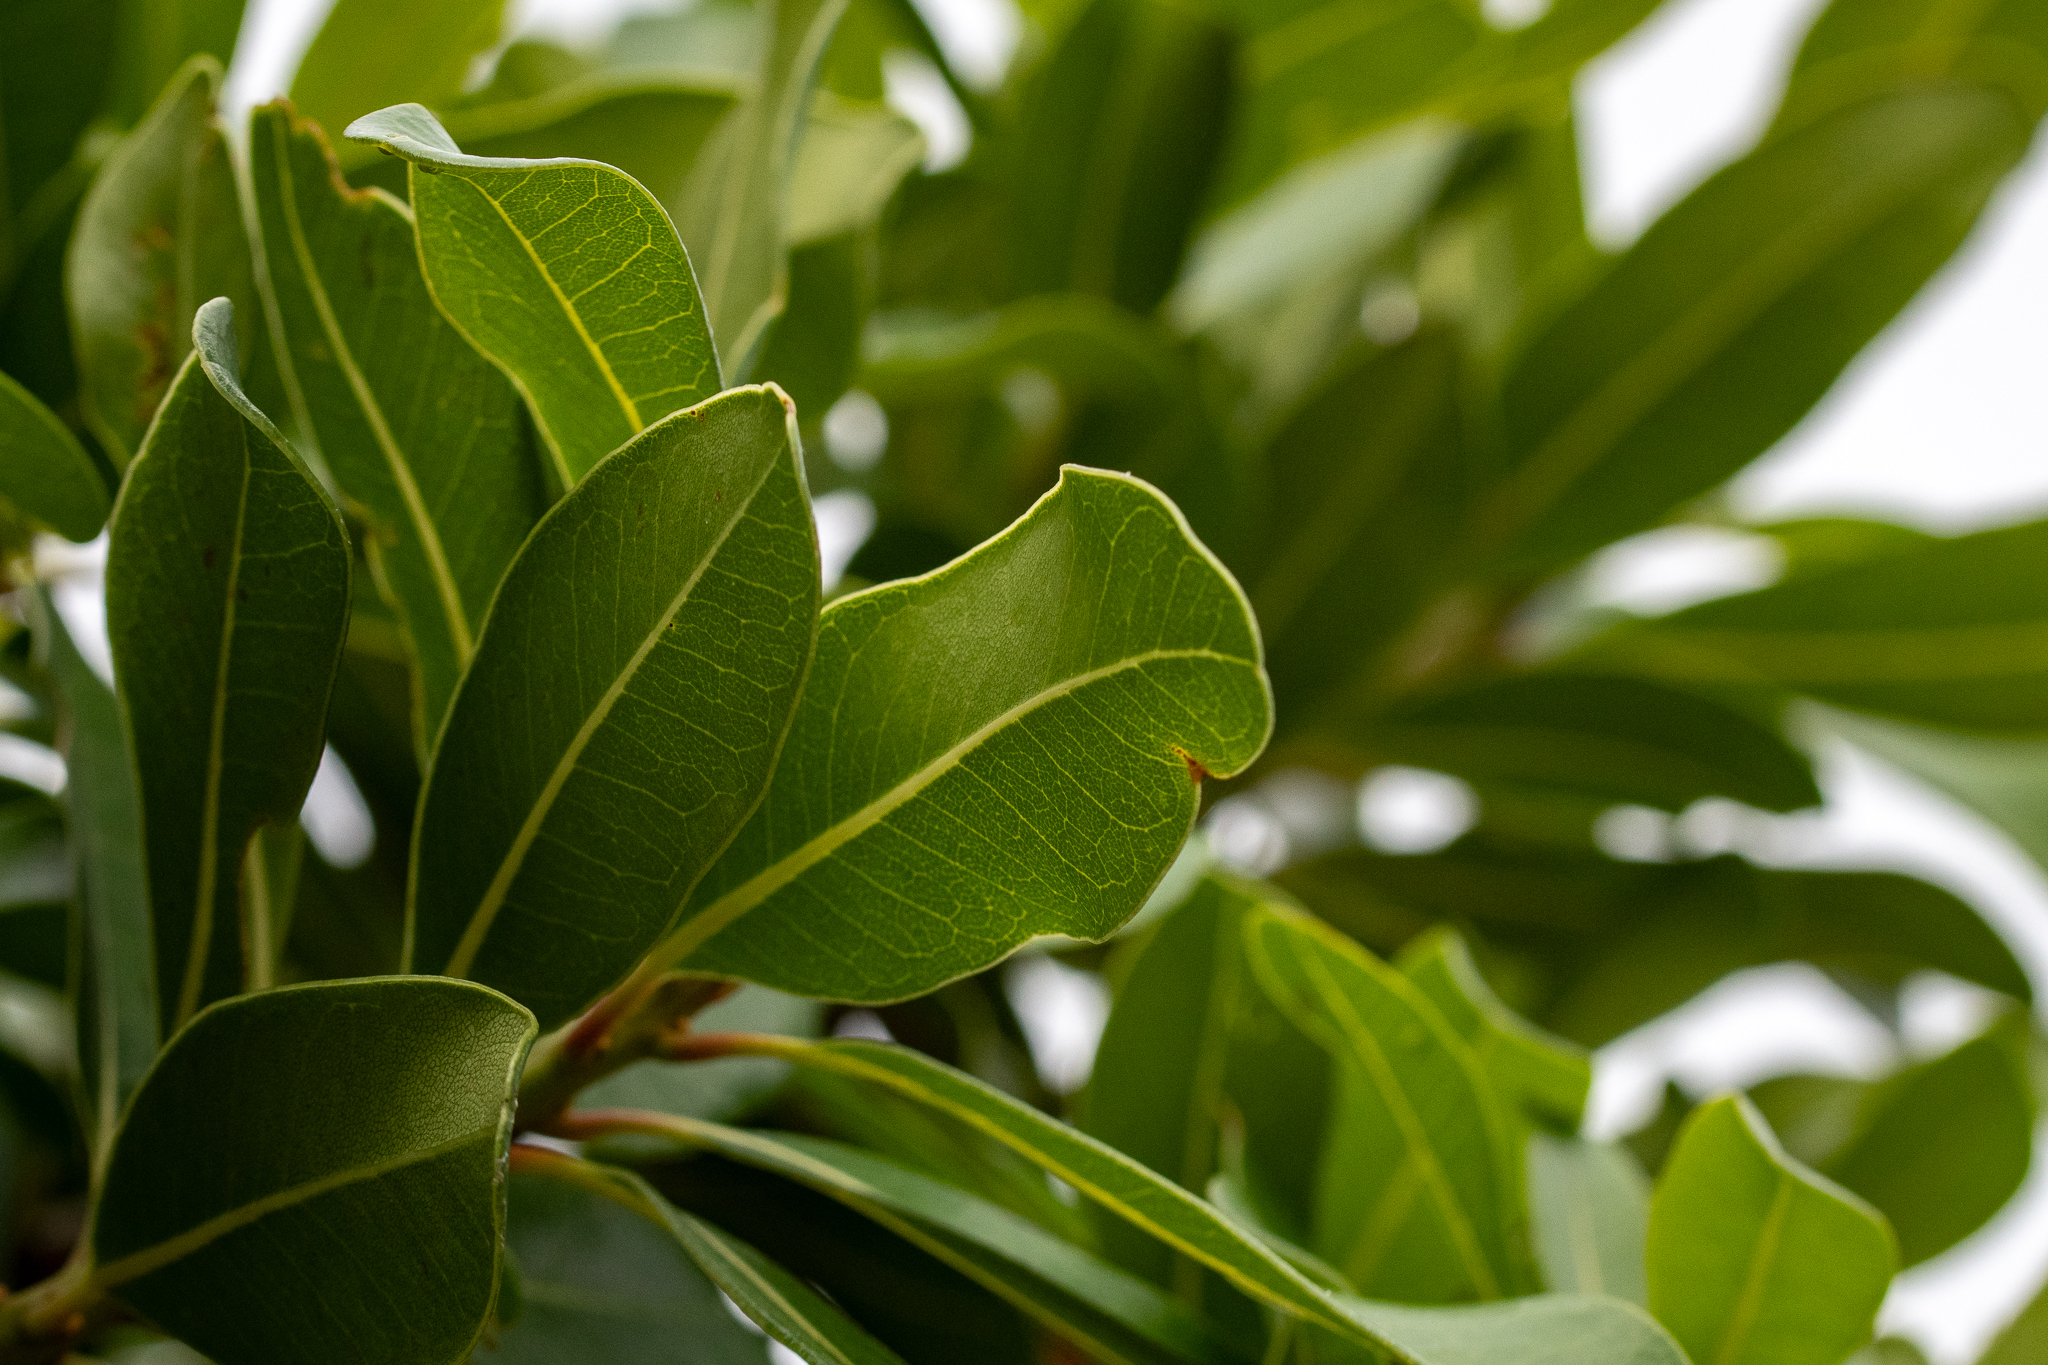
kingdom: Plantae
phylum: Tracheophyta
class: Magnoliopsida
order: Ericales
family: Sapotaceae
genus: Sideroxylon
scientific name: Sideroxylon inerme
